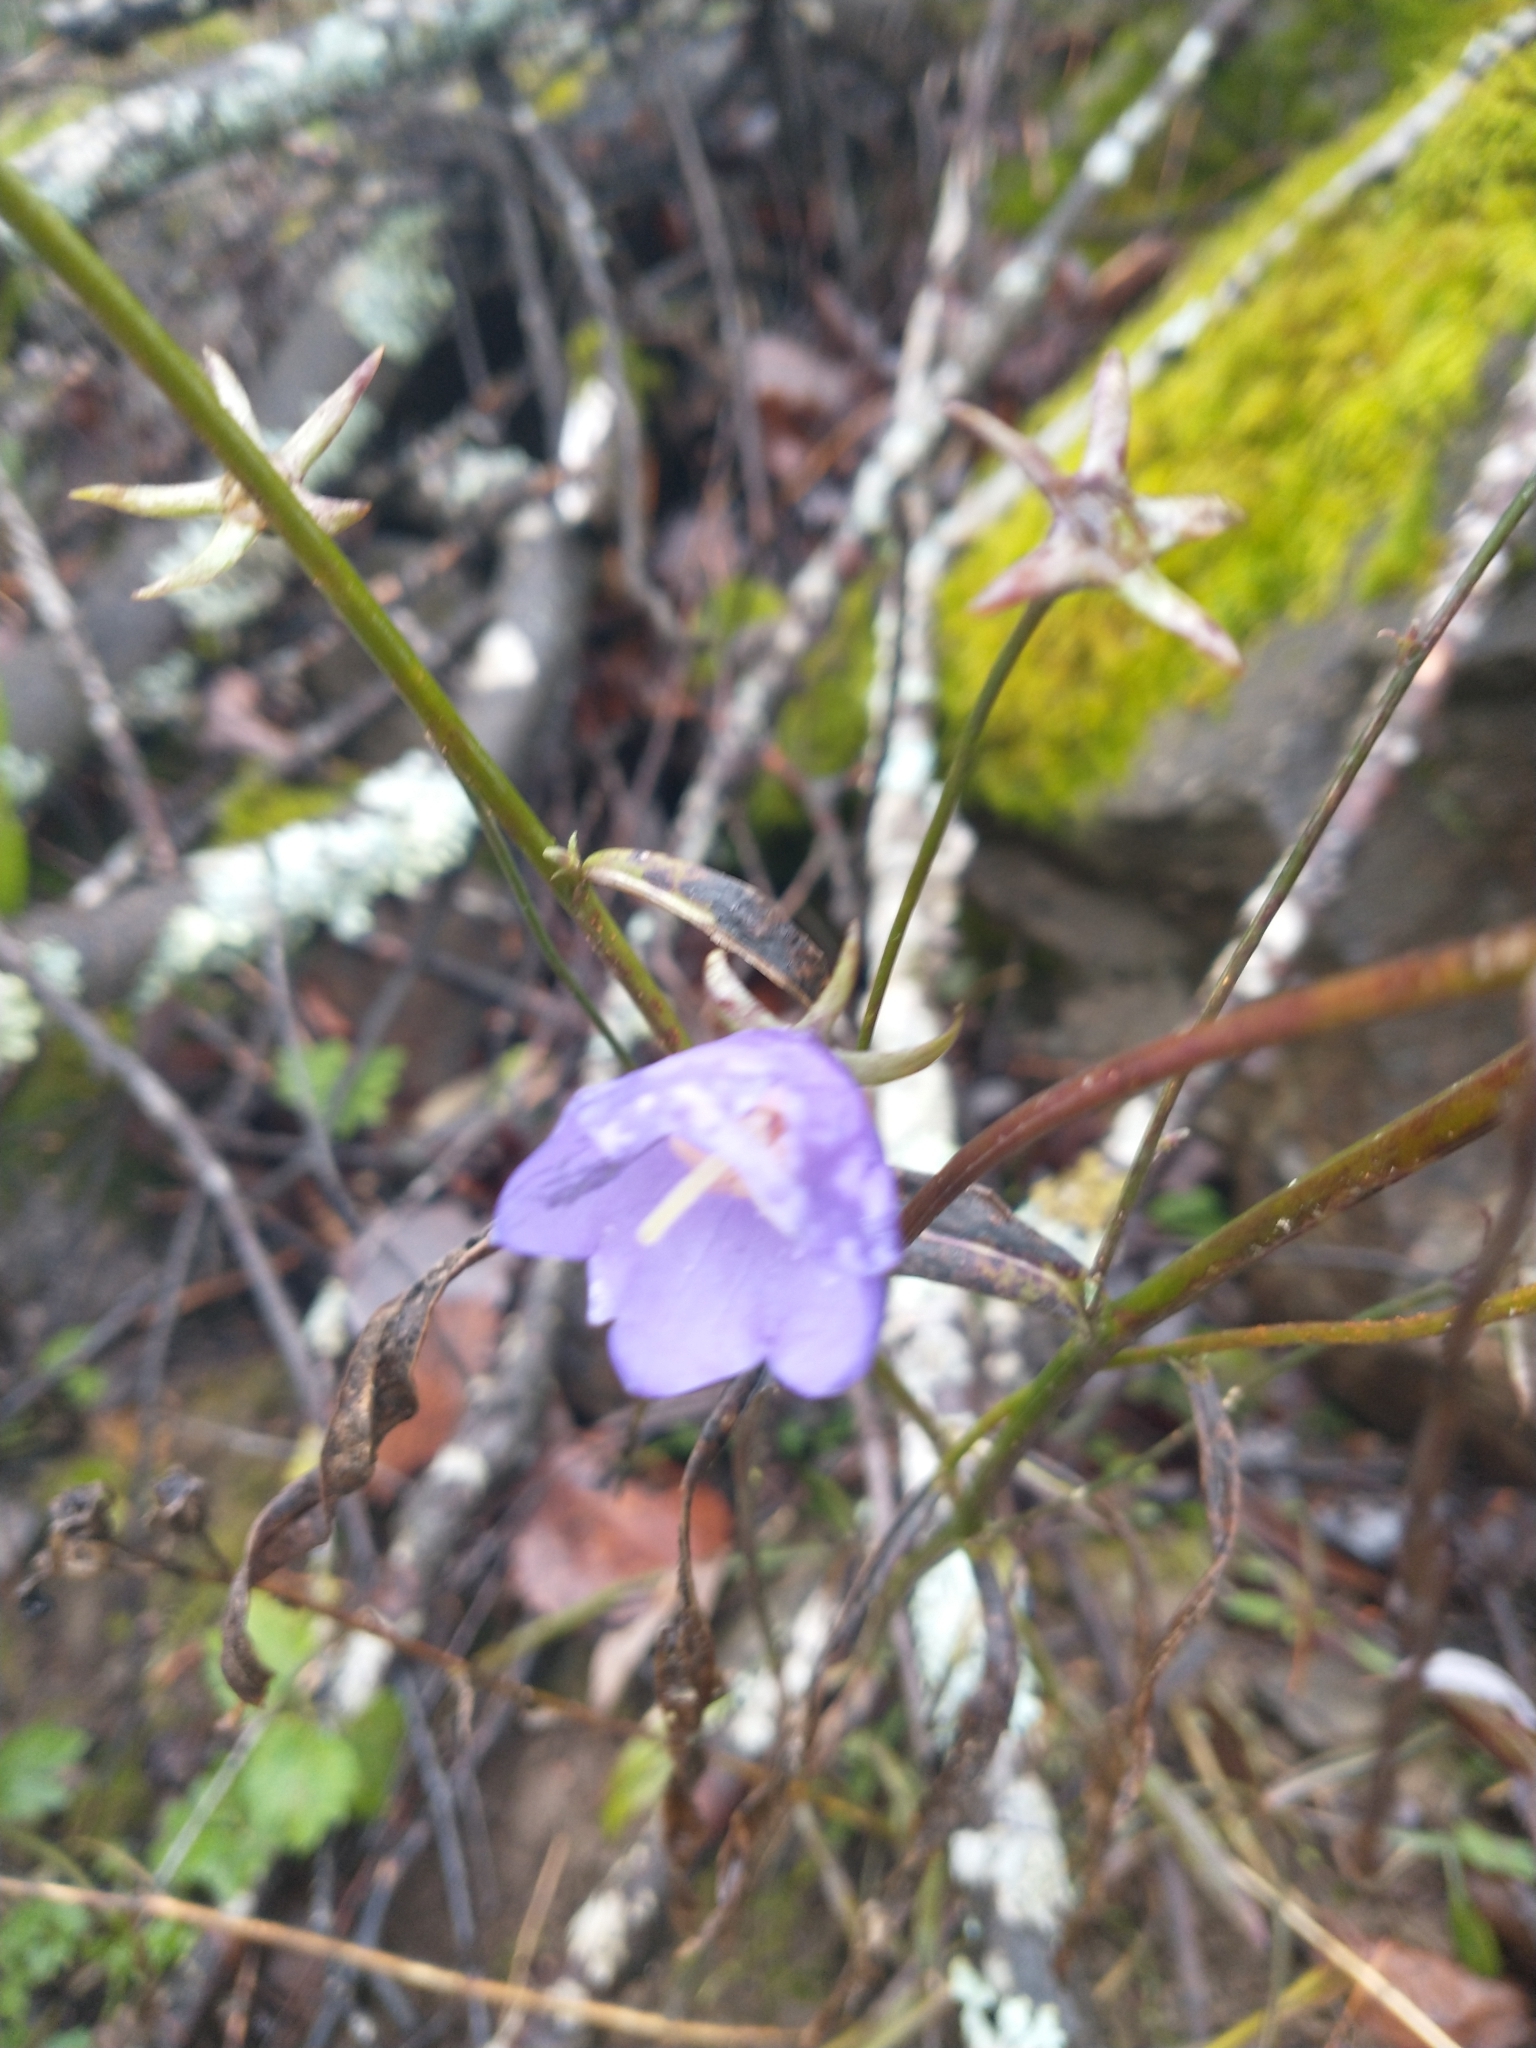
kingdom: Plantae
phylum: Tracheophyta
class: Magnoliopsida
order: Asterales
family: Campanulaceae
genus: Campanula
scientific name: Campanula persicifolia
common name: Peach-leaved bellflower
